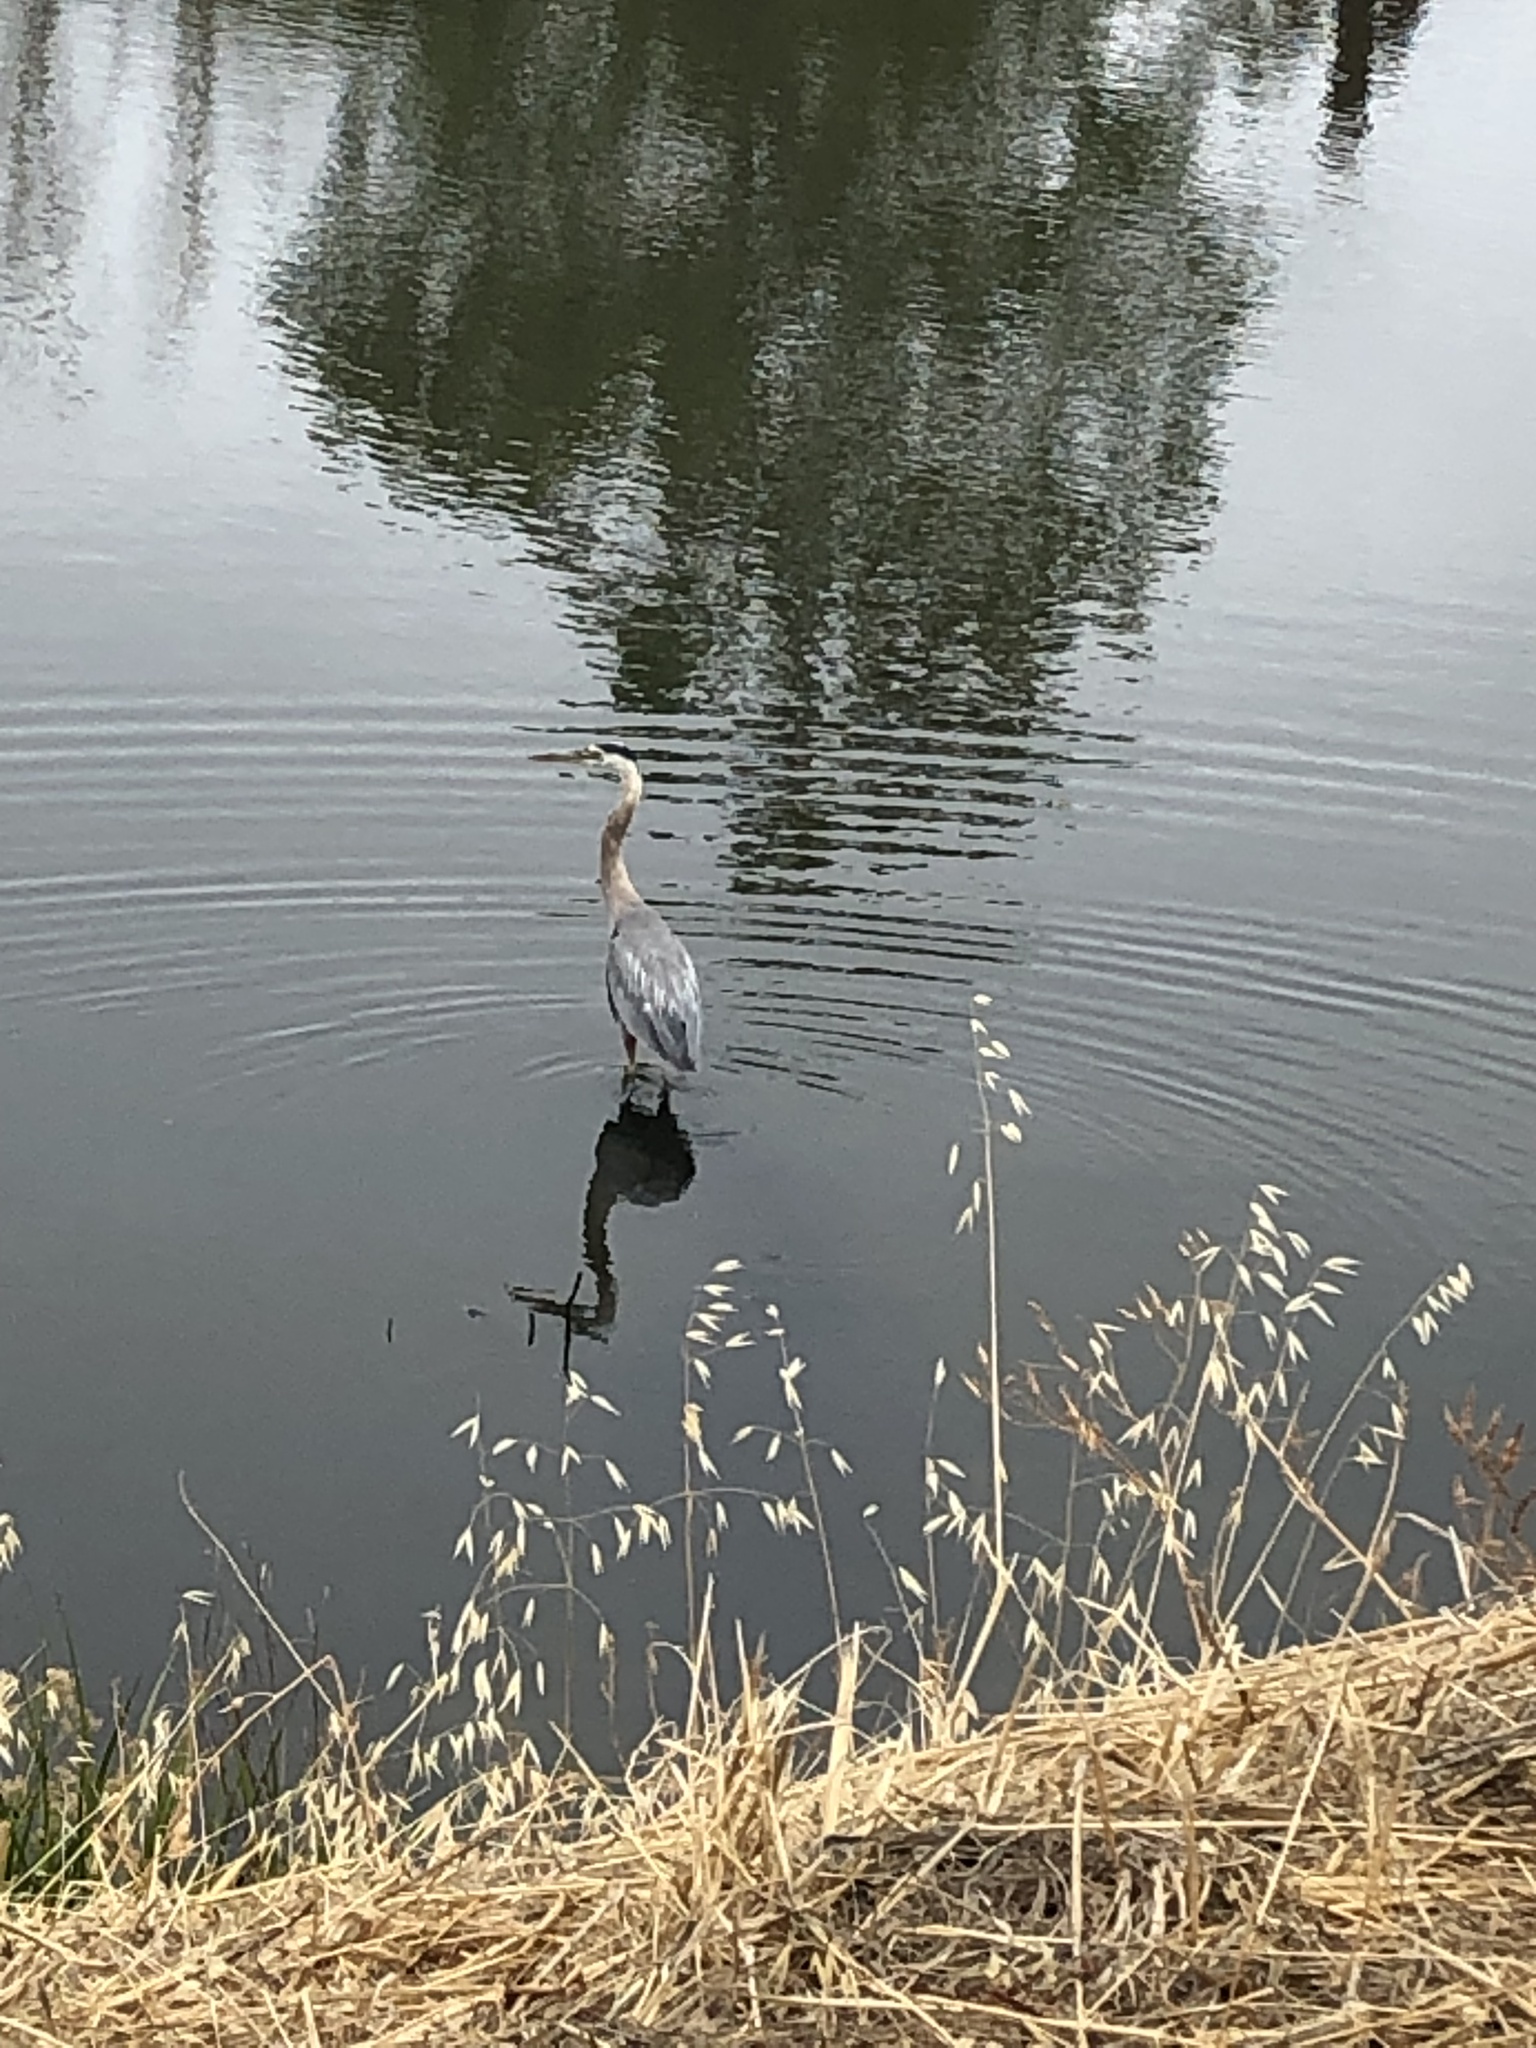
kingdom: Animalia
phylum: Chordata
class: Aves
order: Pelecaniformes
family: Ardeidae
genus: Ardea
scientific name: Ardea herodias
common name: Great blue heron
